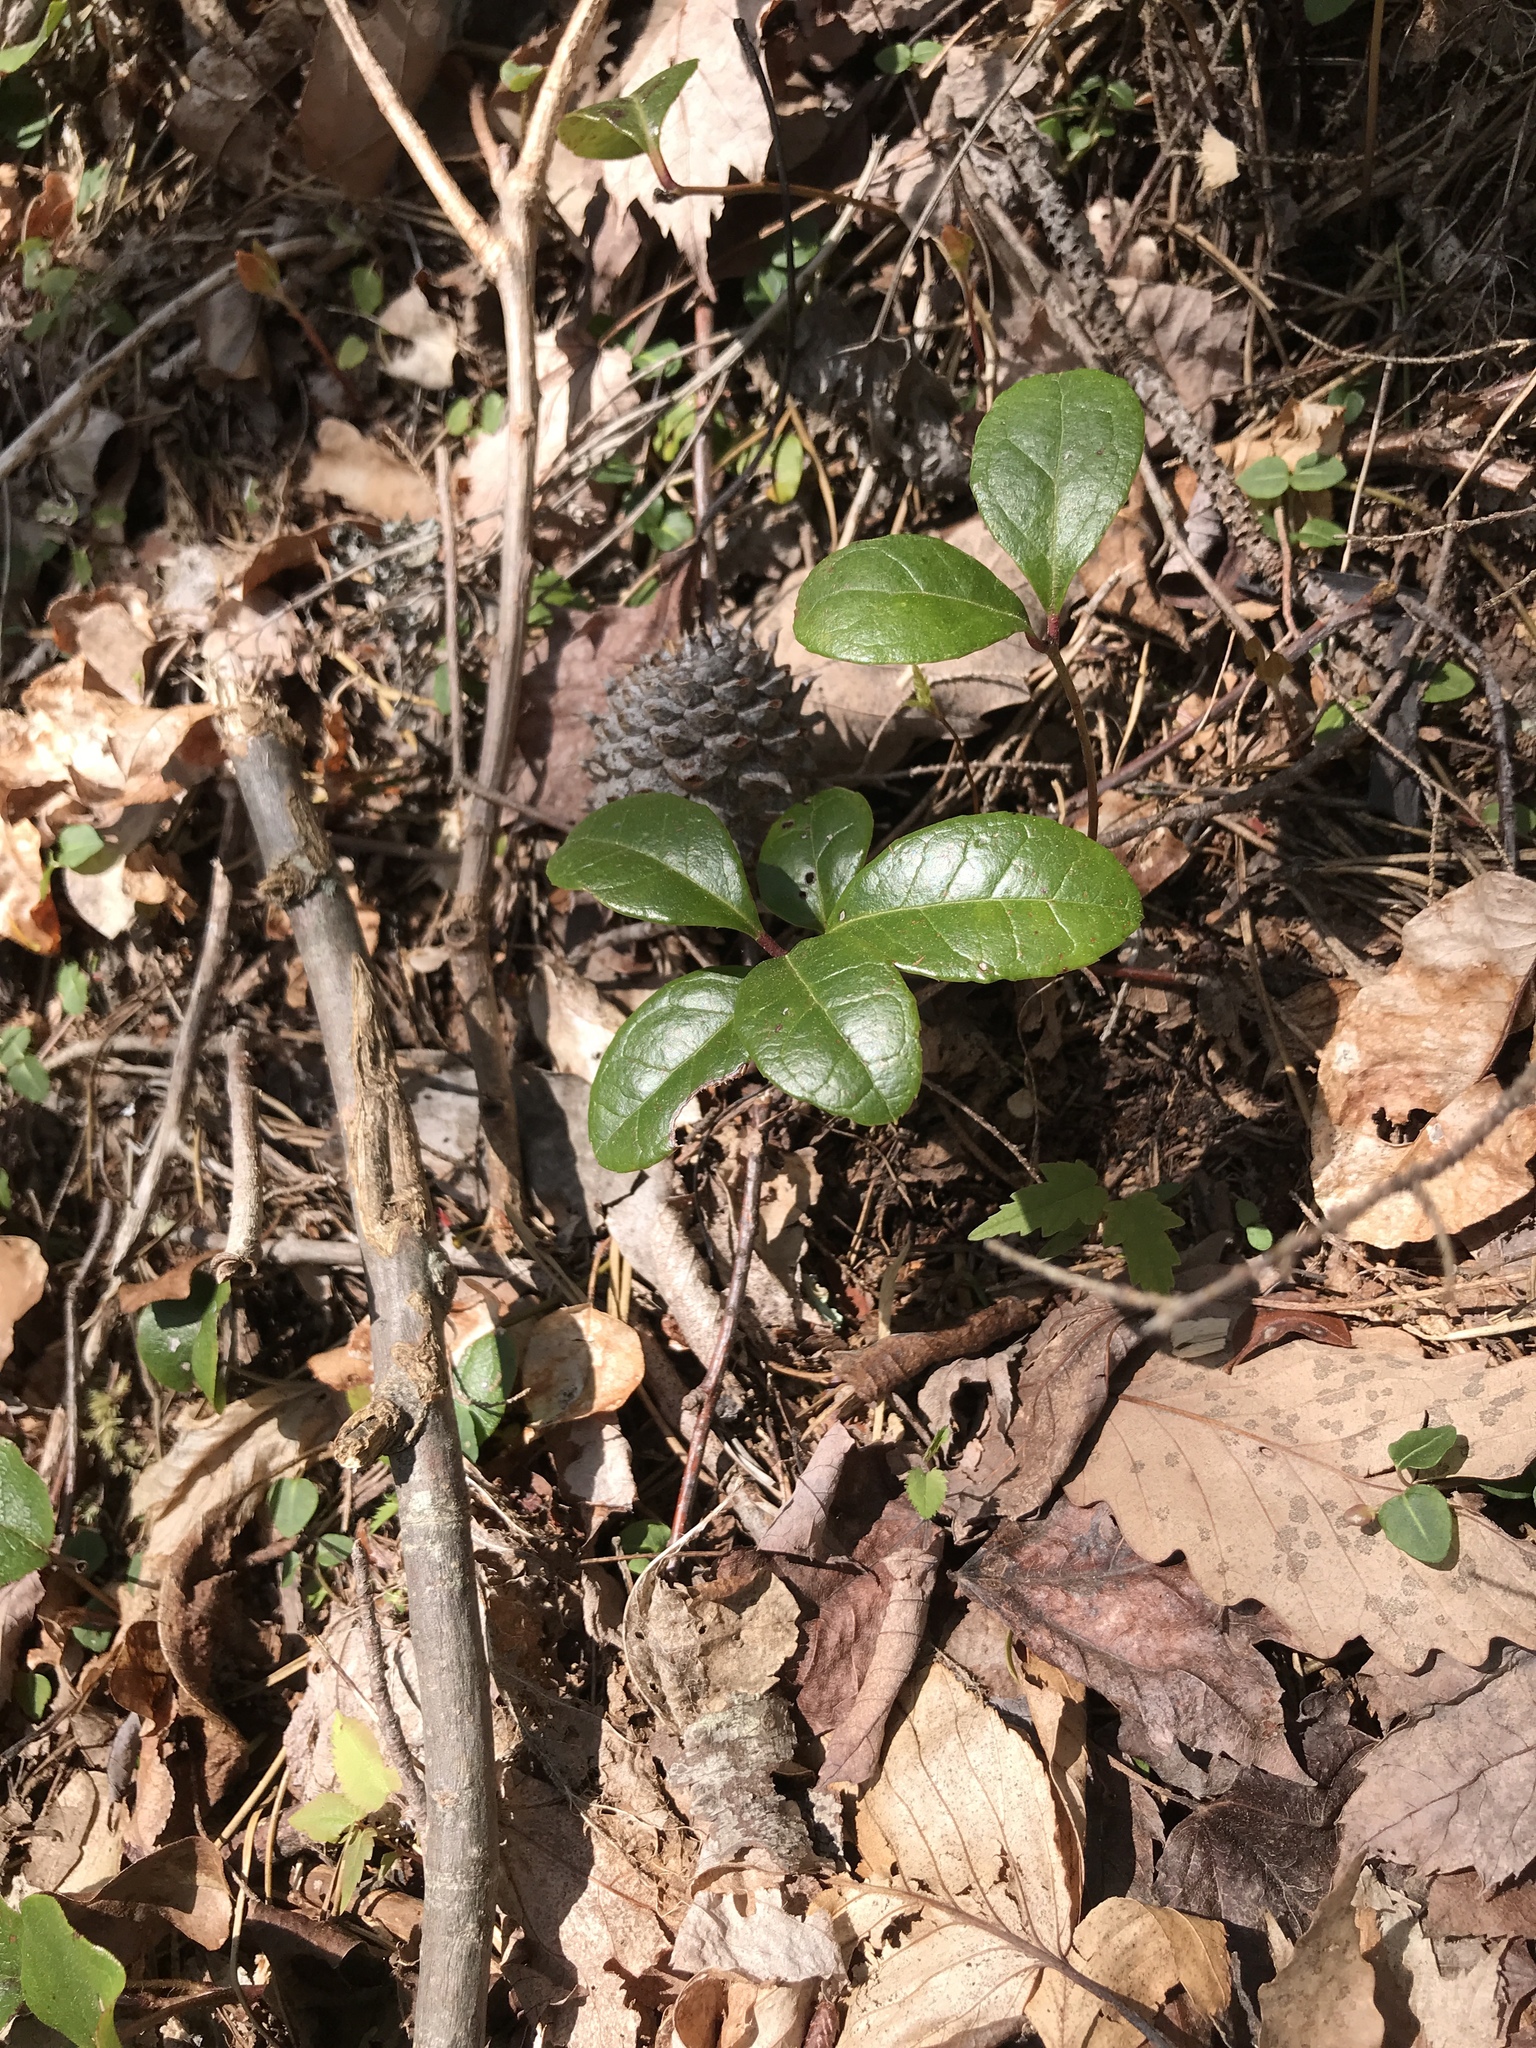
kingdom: Plantae
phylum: Tracheophyta
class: Magnoliopsida
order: Ericales
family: Ericaceae
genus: Gaultheria
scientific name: Gaultheria procumbens
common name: Checkerberry
